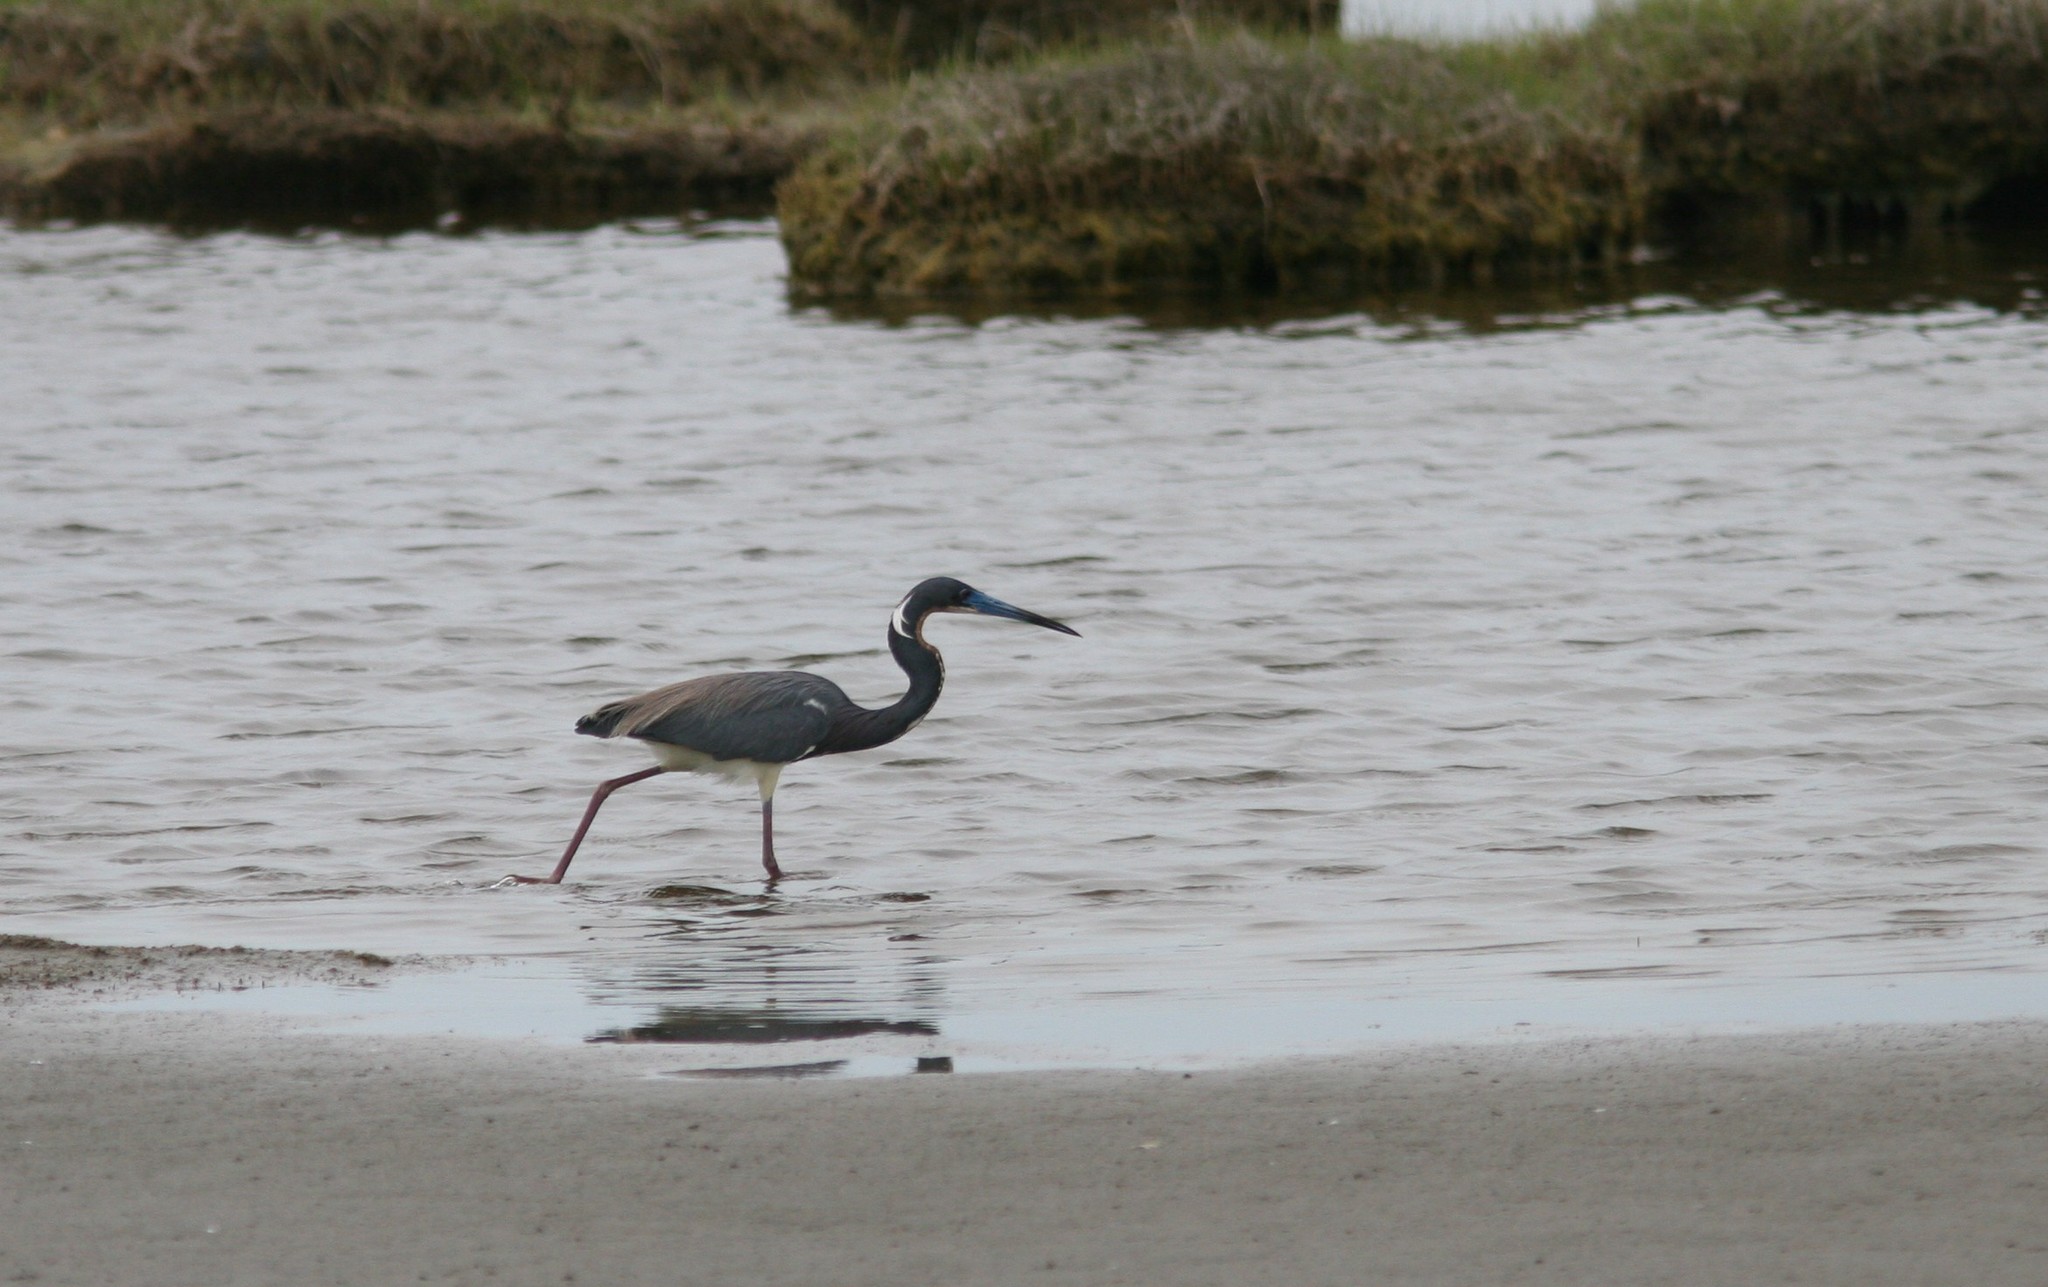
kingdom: Animalia
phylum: Chordata
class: Aves
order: Pelecaniformes
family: Ardeidae
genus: Egretta
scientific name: Egretta tricolor
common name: Tricolored heron
